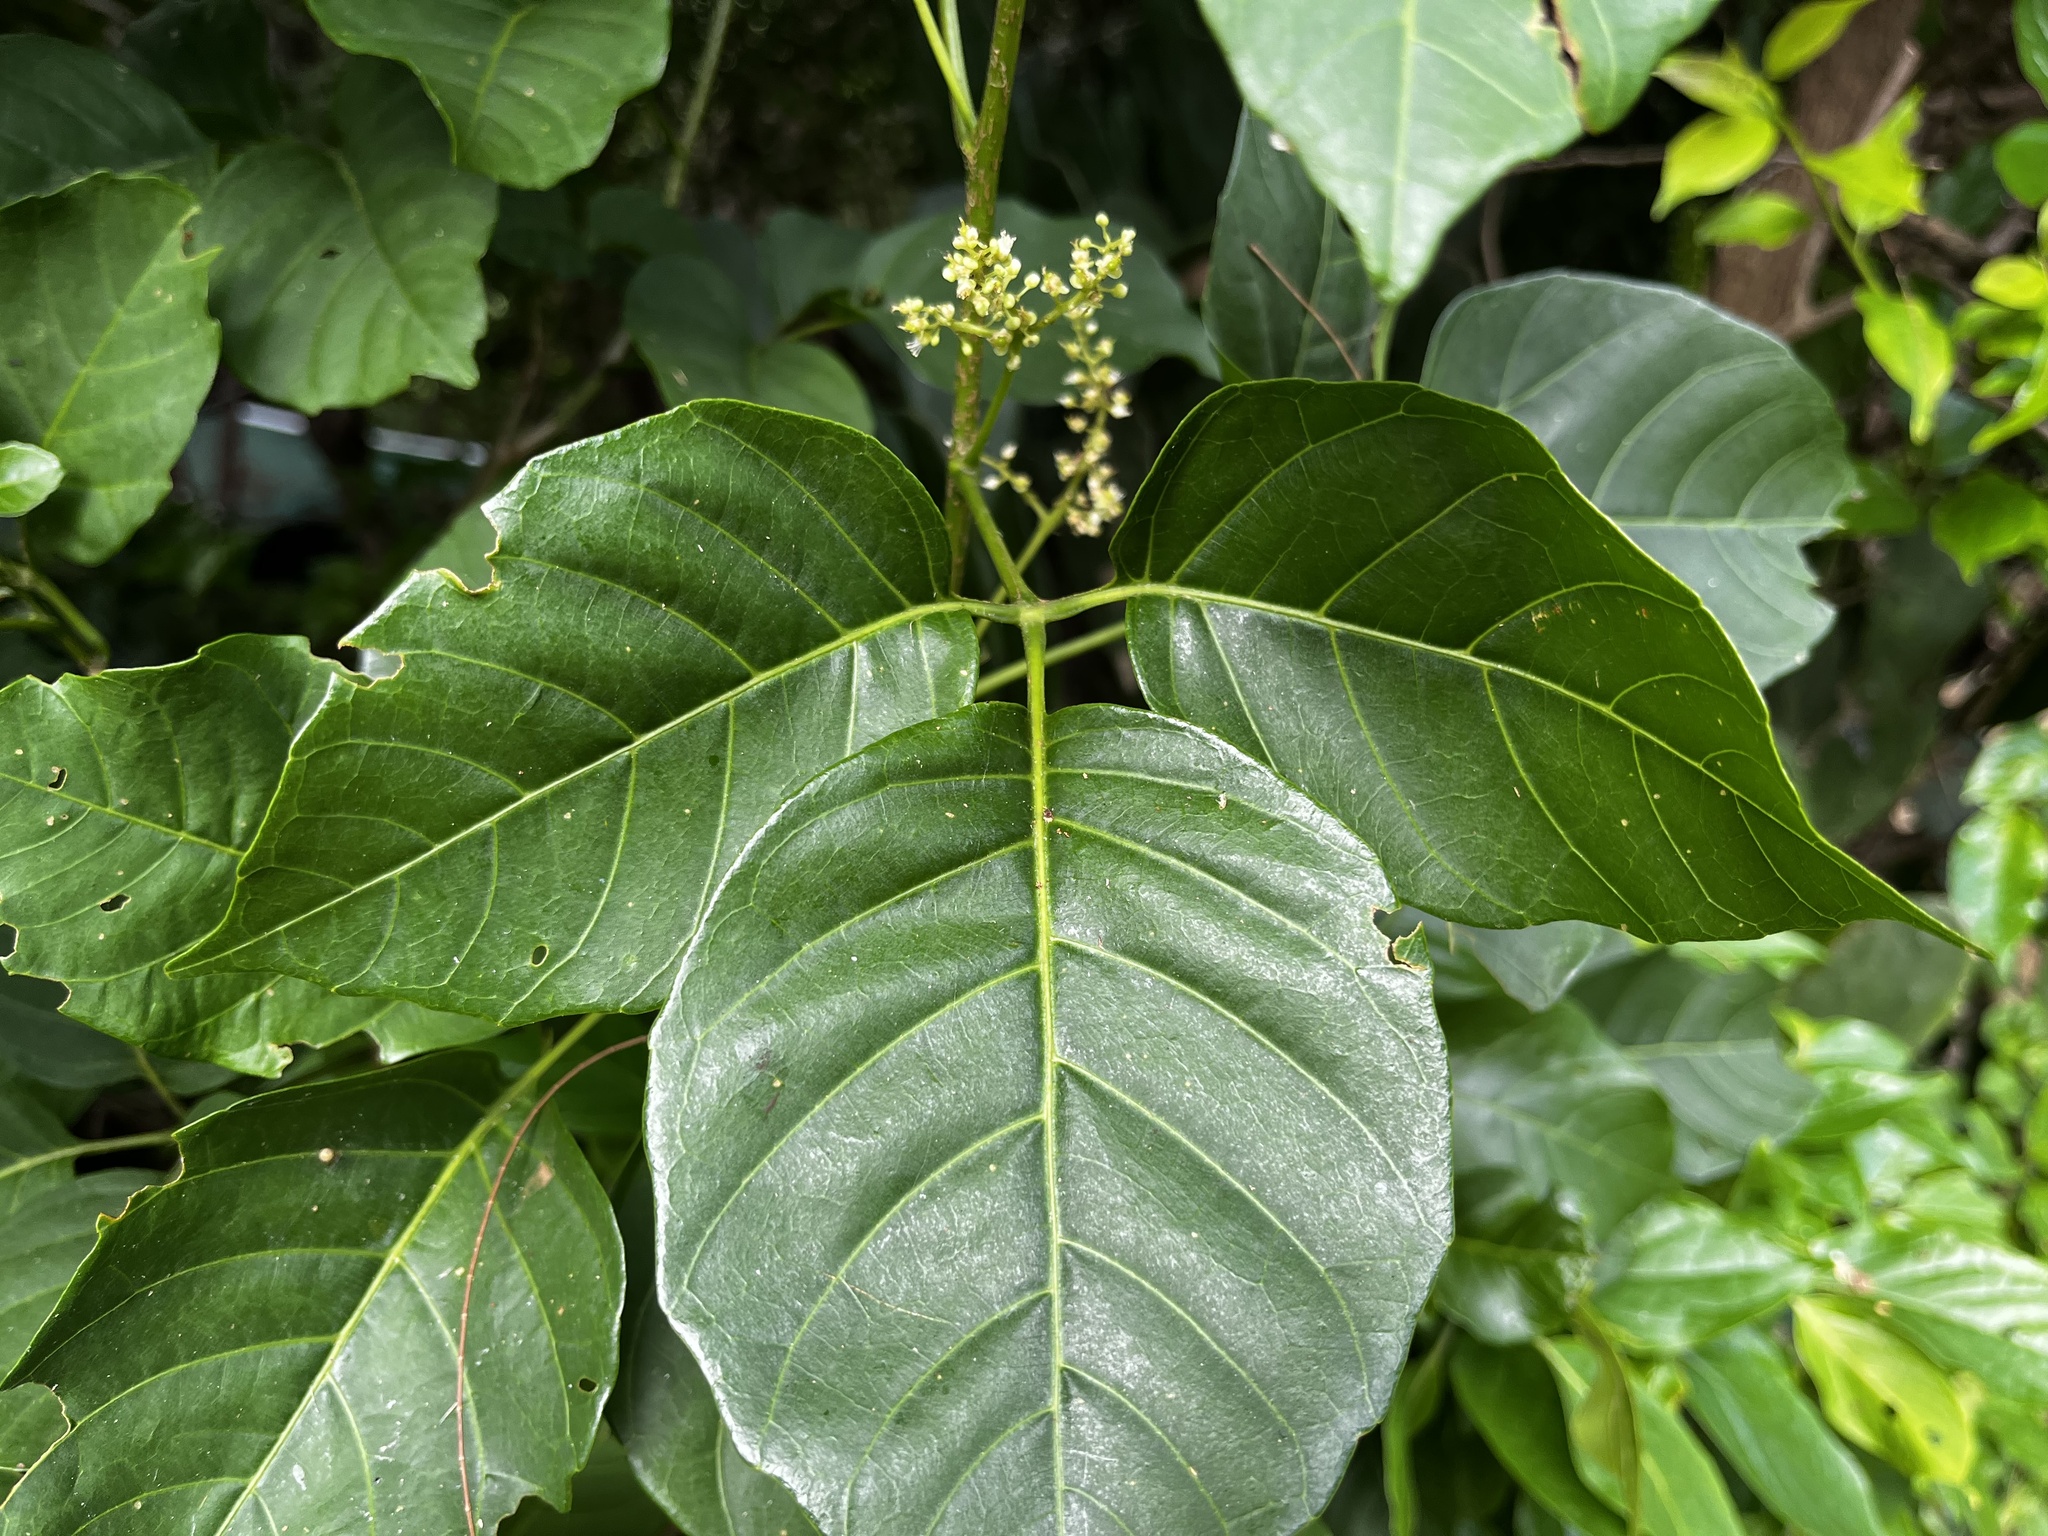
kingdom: Plantae
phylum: Tracheophyta
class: Magnoliopsida
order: Sapindales
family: Sapindaceae
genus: Allophylus
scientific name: Allophylus timorensis
